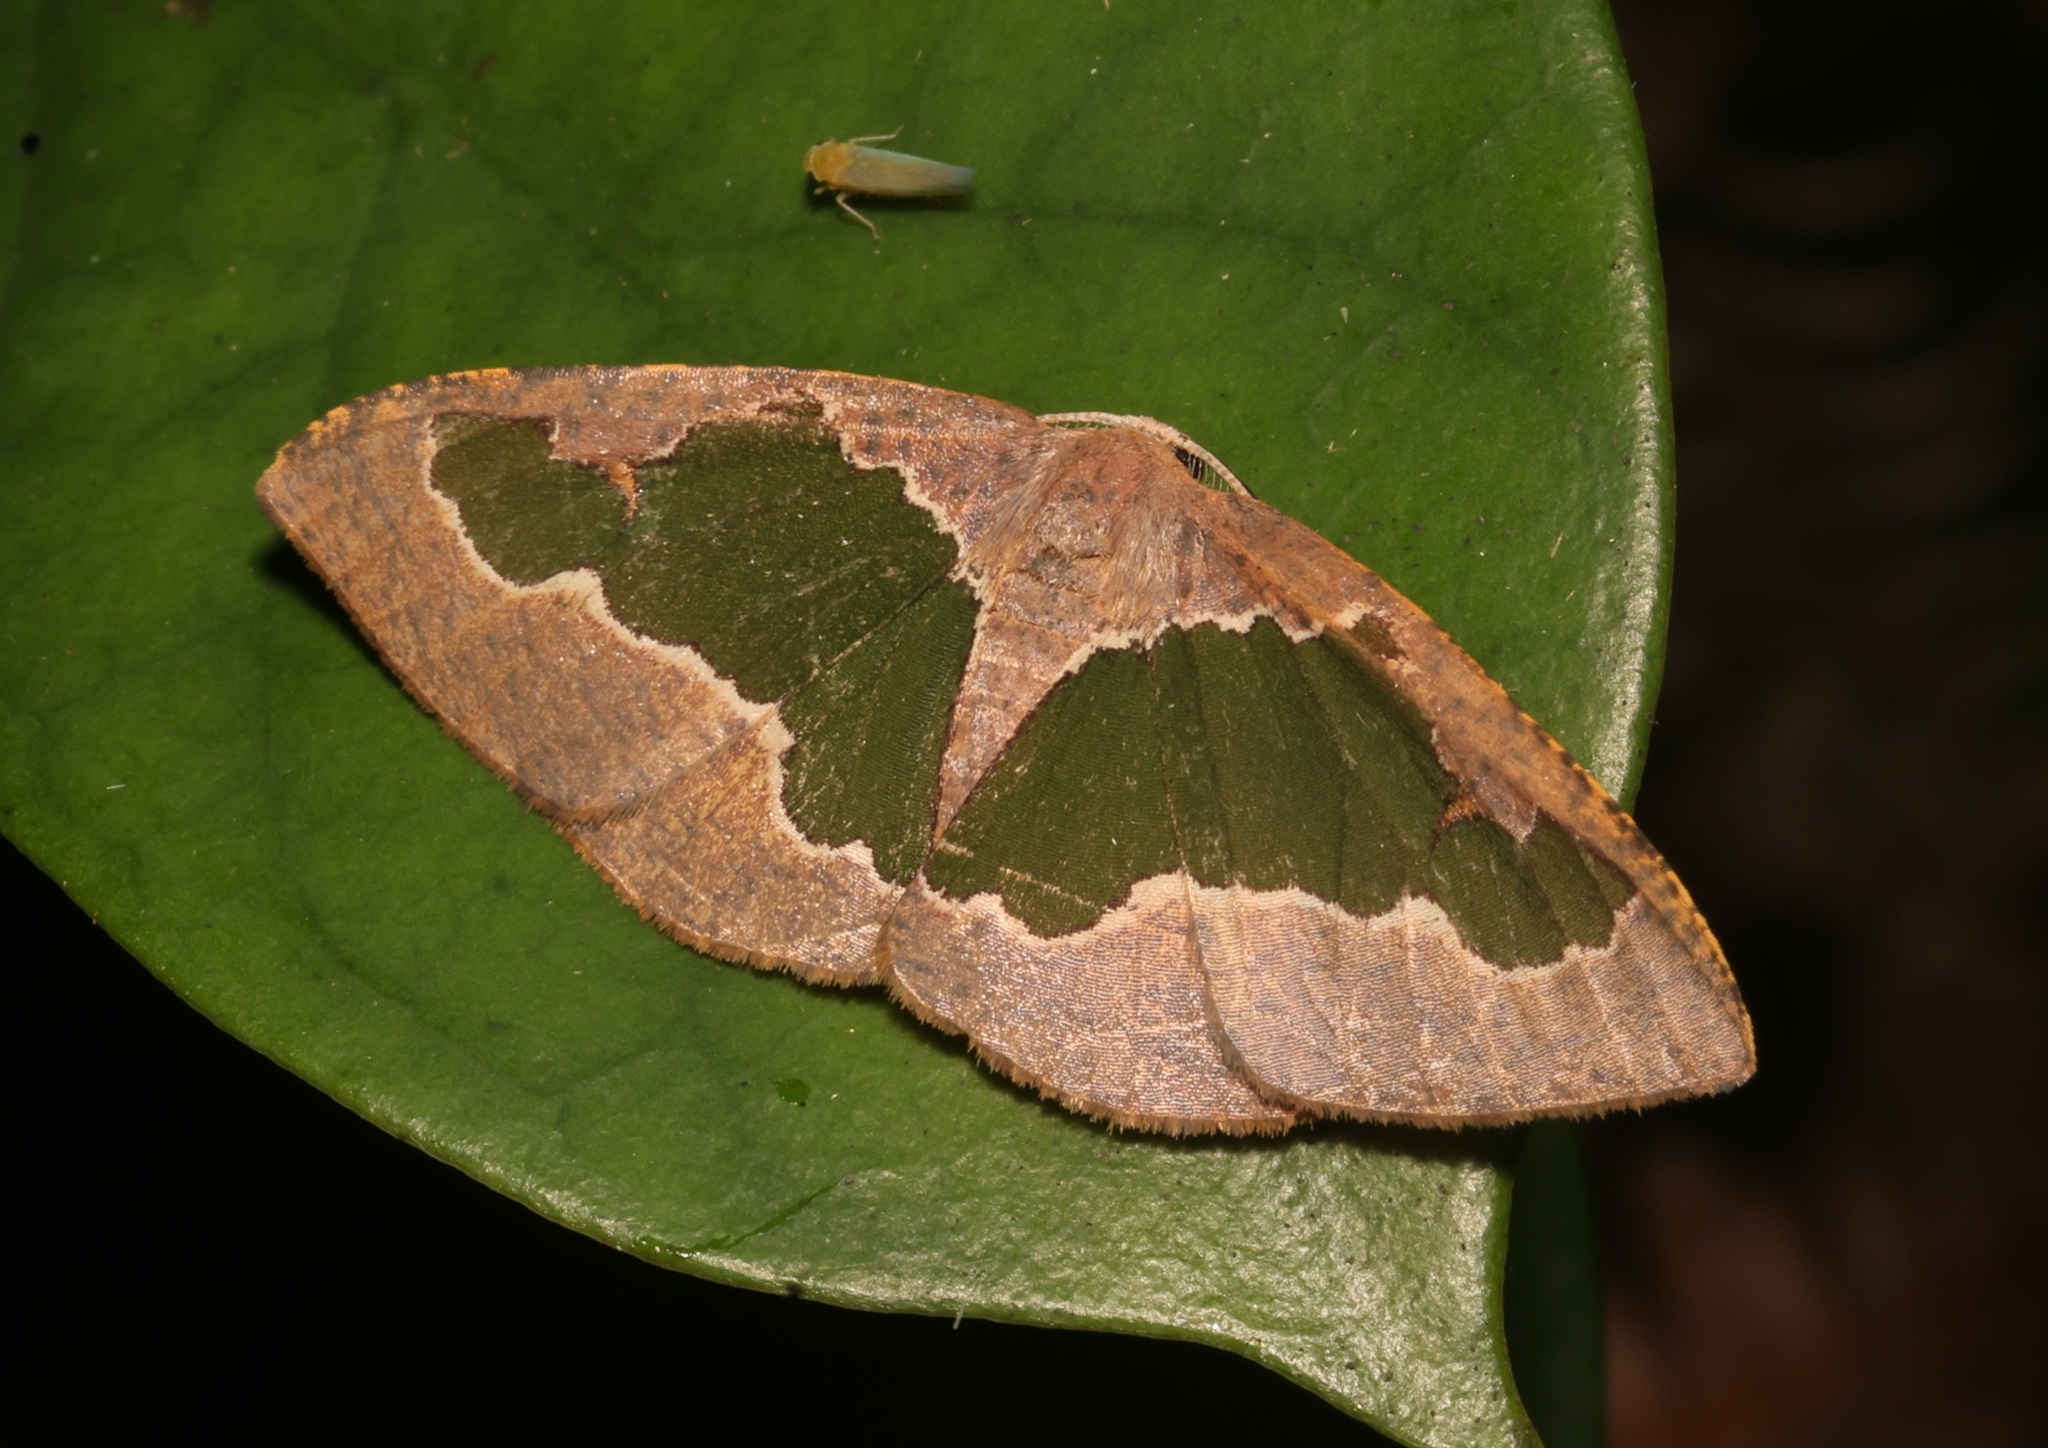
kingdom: Animalia
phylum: Arthropoda
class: Insecta
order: Lepidoptera
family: Geometridae
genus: Celenna
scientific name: Celenna festivaria
